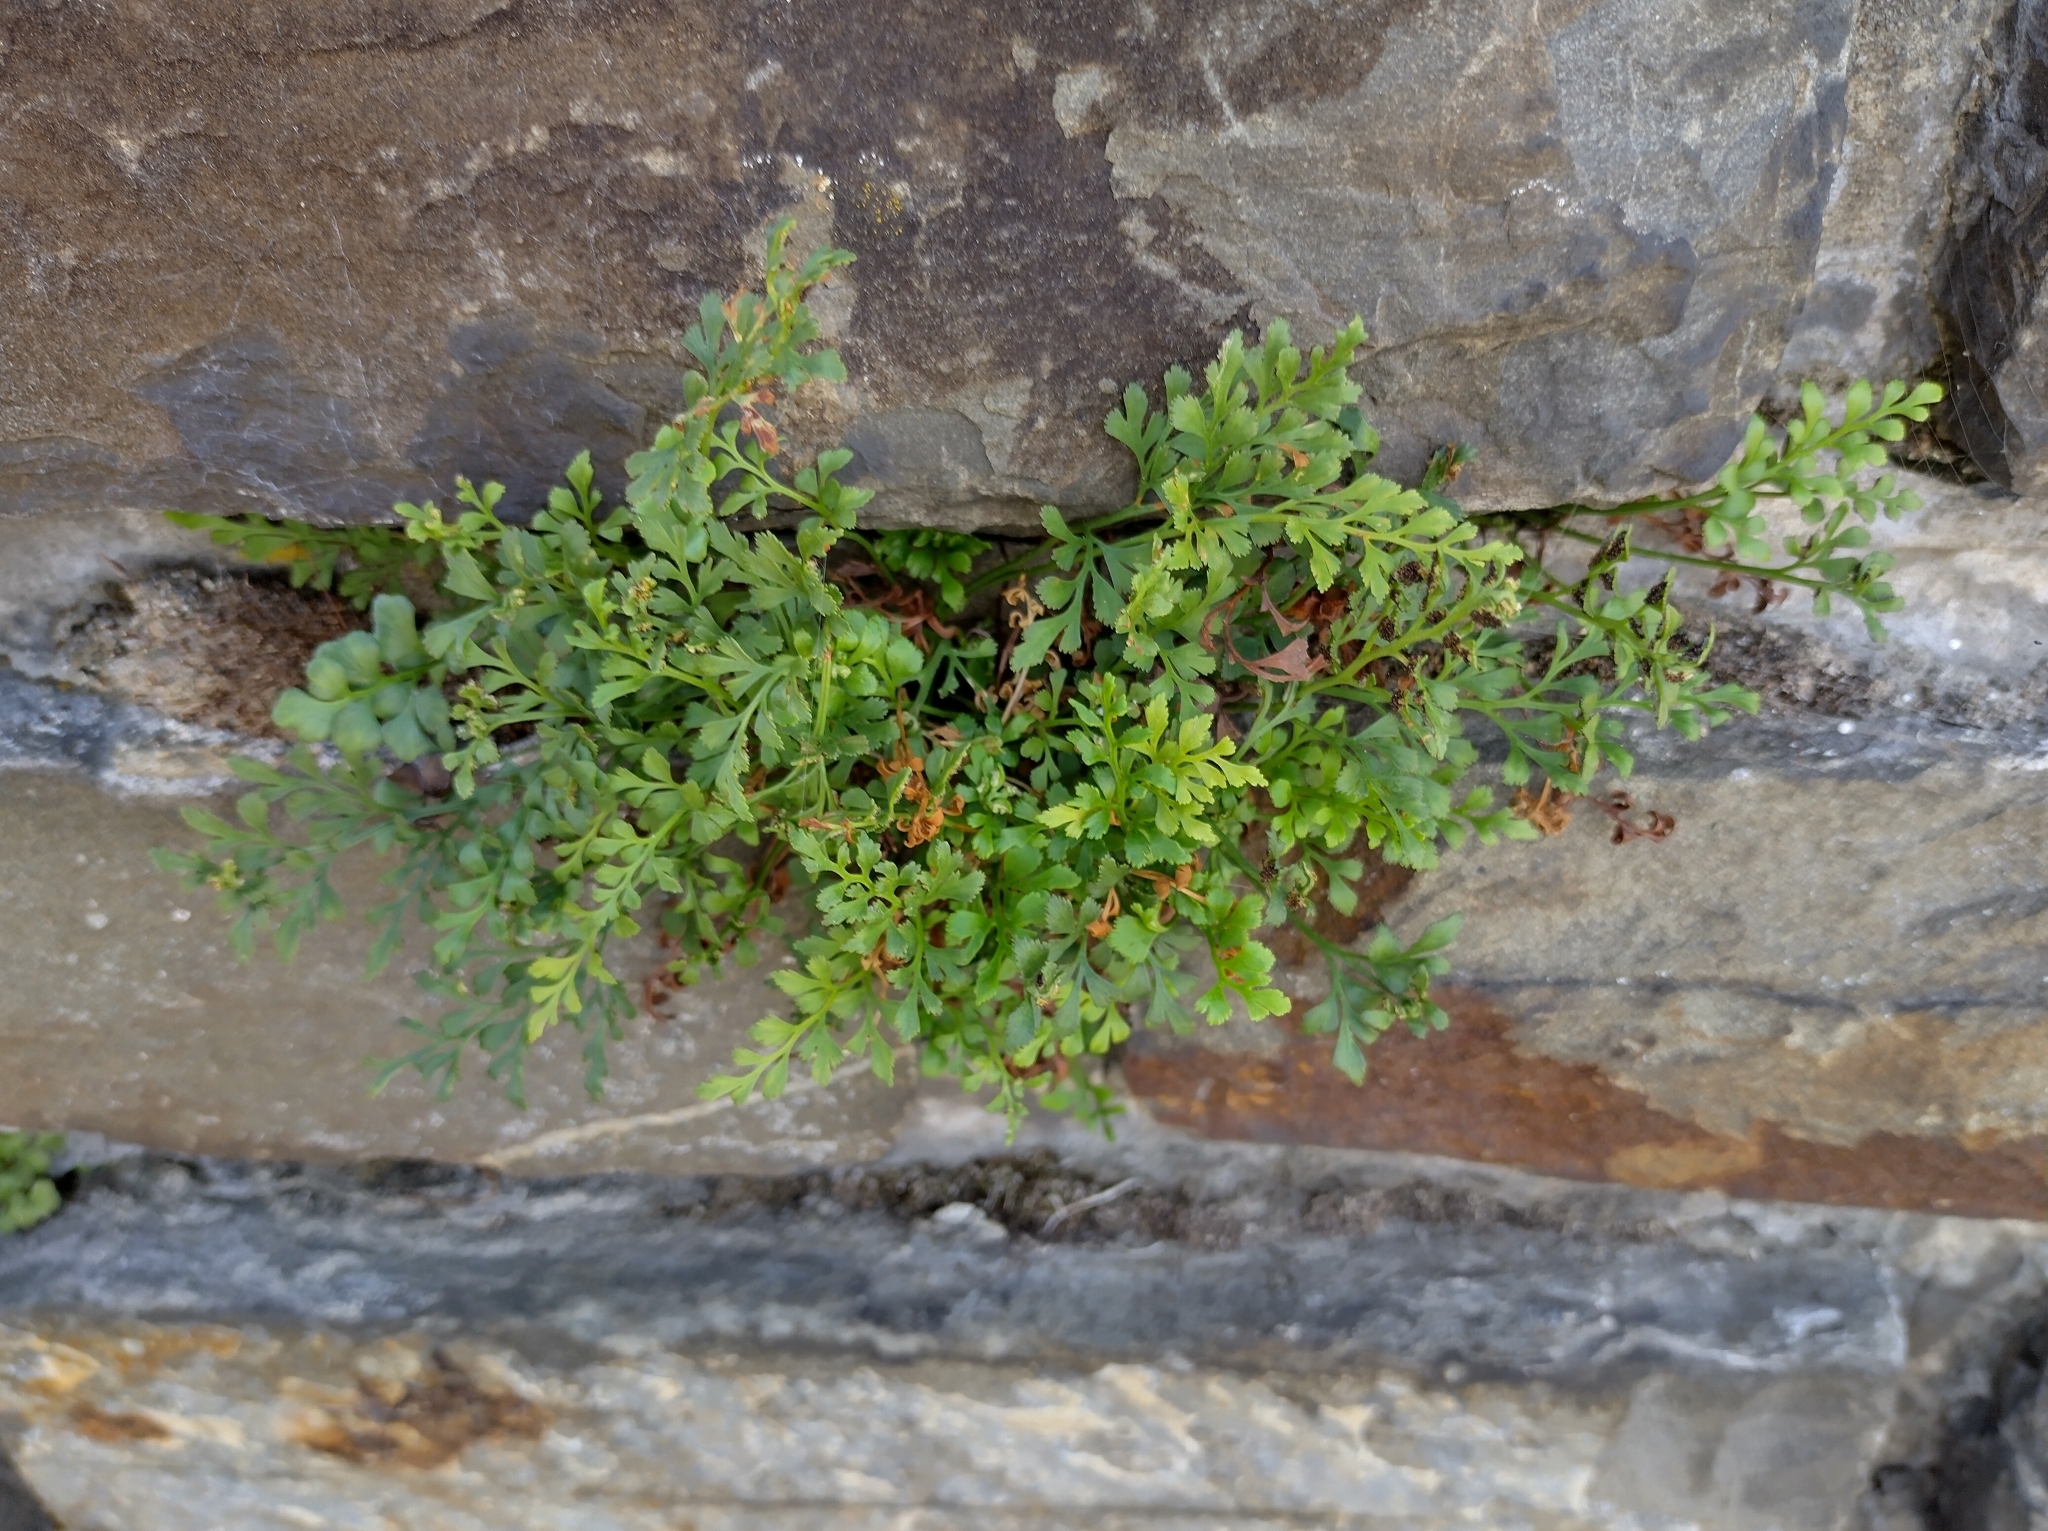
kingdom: Plantae
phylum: Tracheophyta
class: Polypodiopsida
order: Polypodiales
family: Aspleniaceae
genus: Asplenium
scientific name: Asplenium ruta-muraria
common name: Wall-rue
